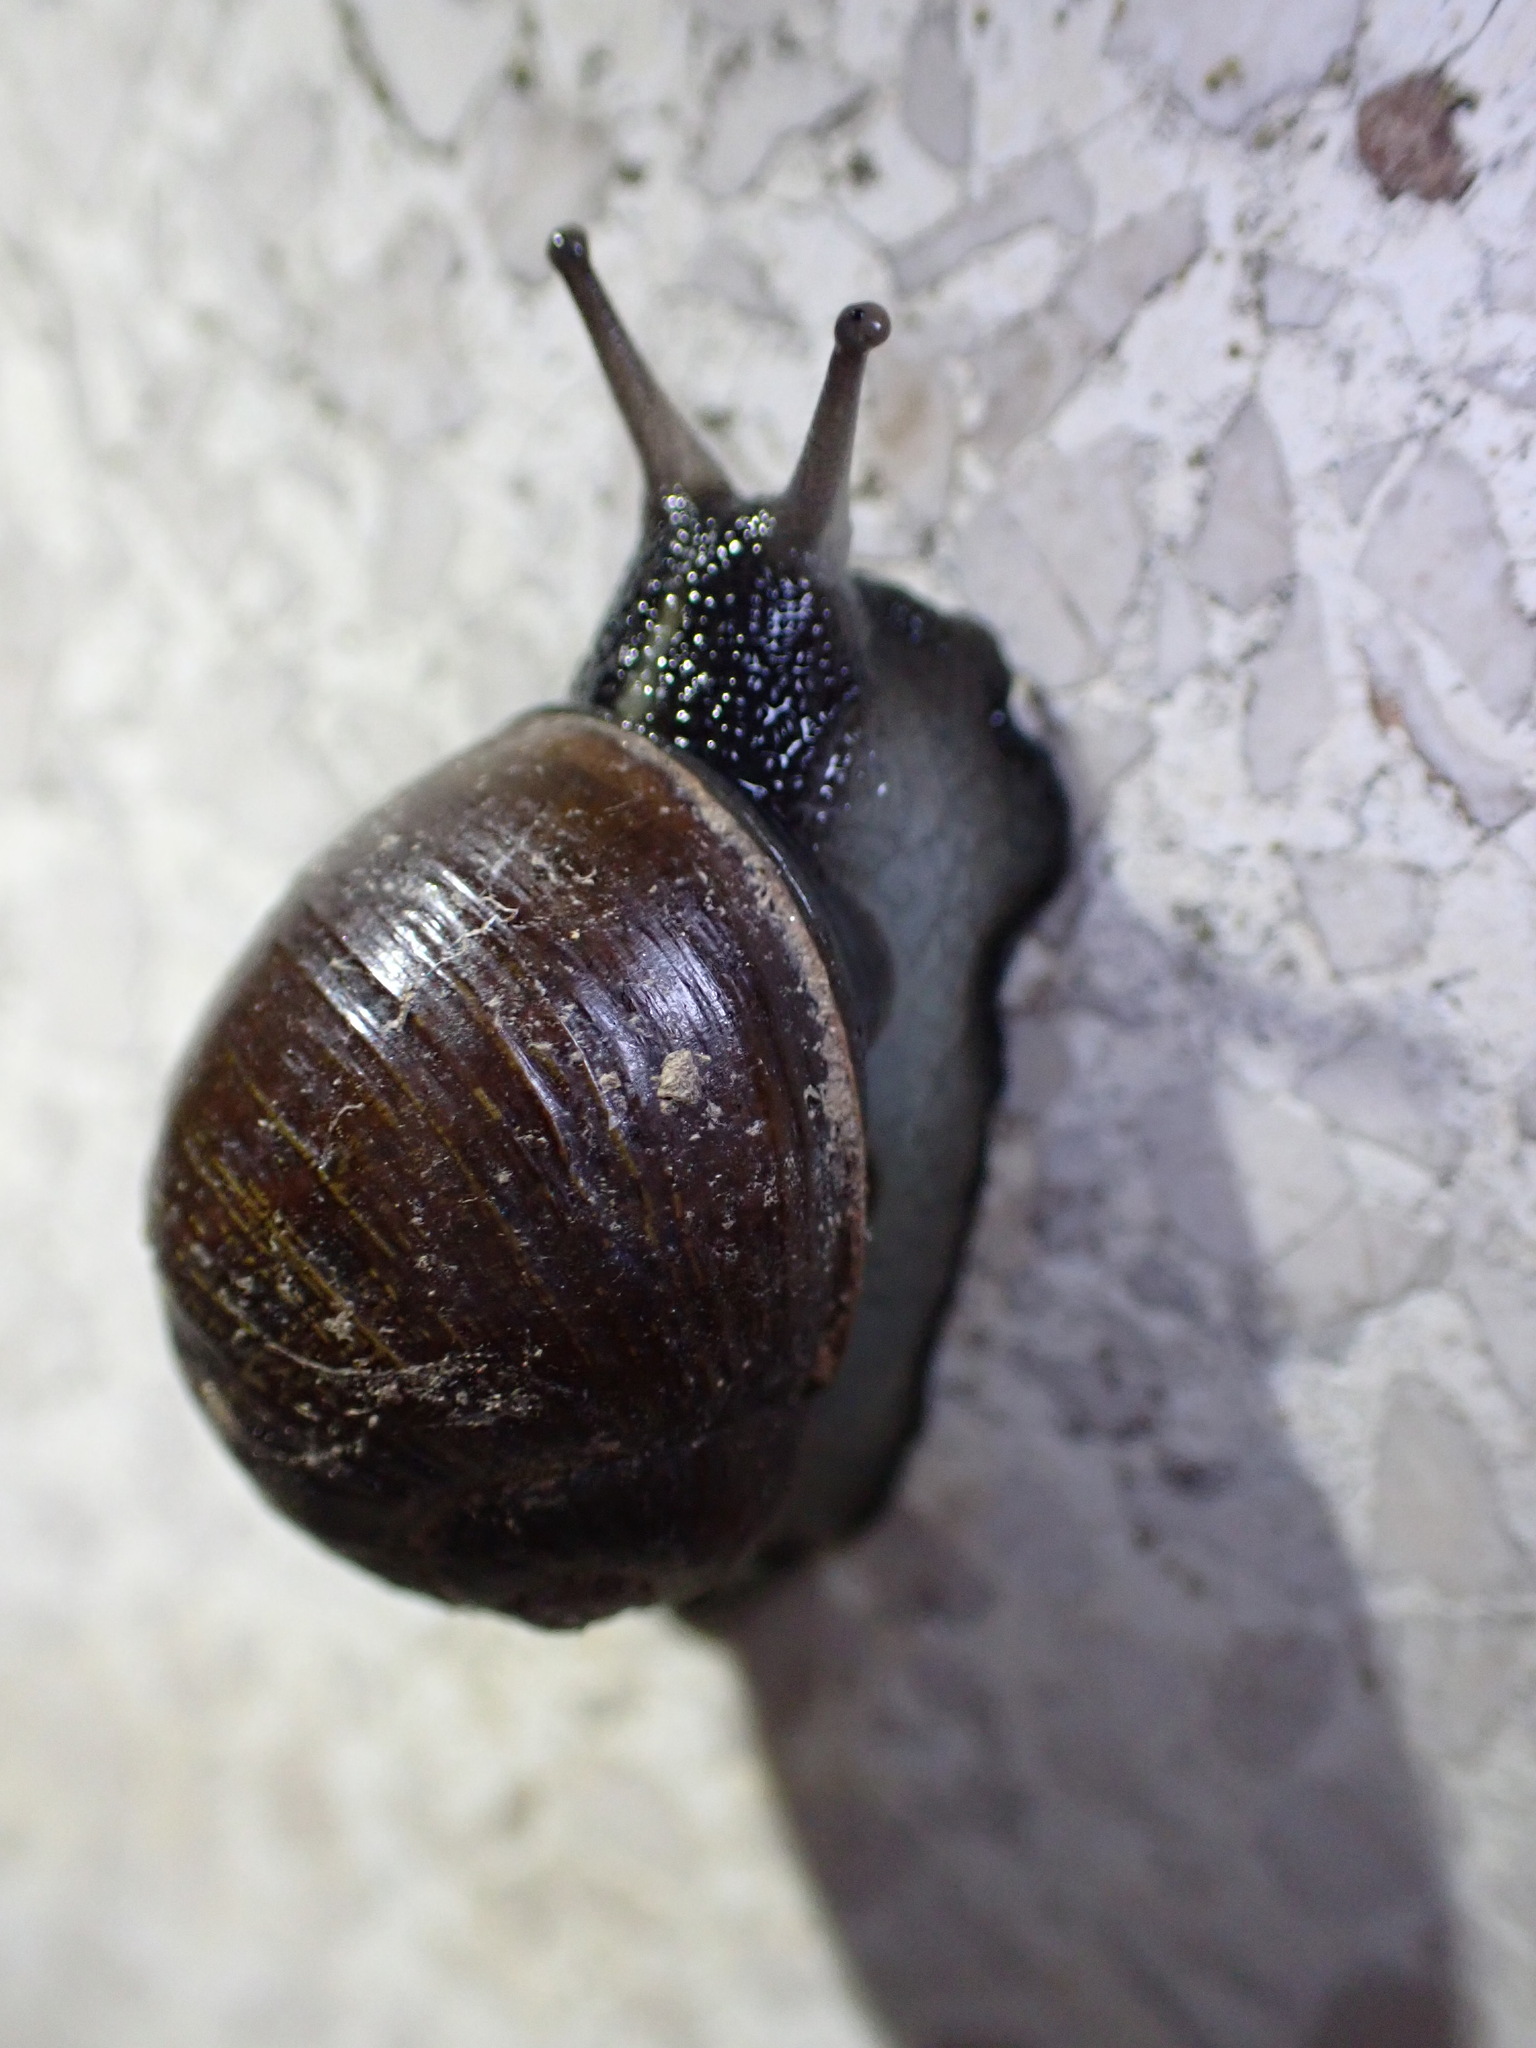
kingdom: Animalia
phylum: Mollusca
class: Gastropoda
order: Stylommatophora
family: Helicidae
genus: Cantareus
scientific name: Cantareus apertus
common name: Green gardensnail
